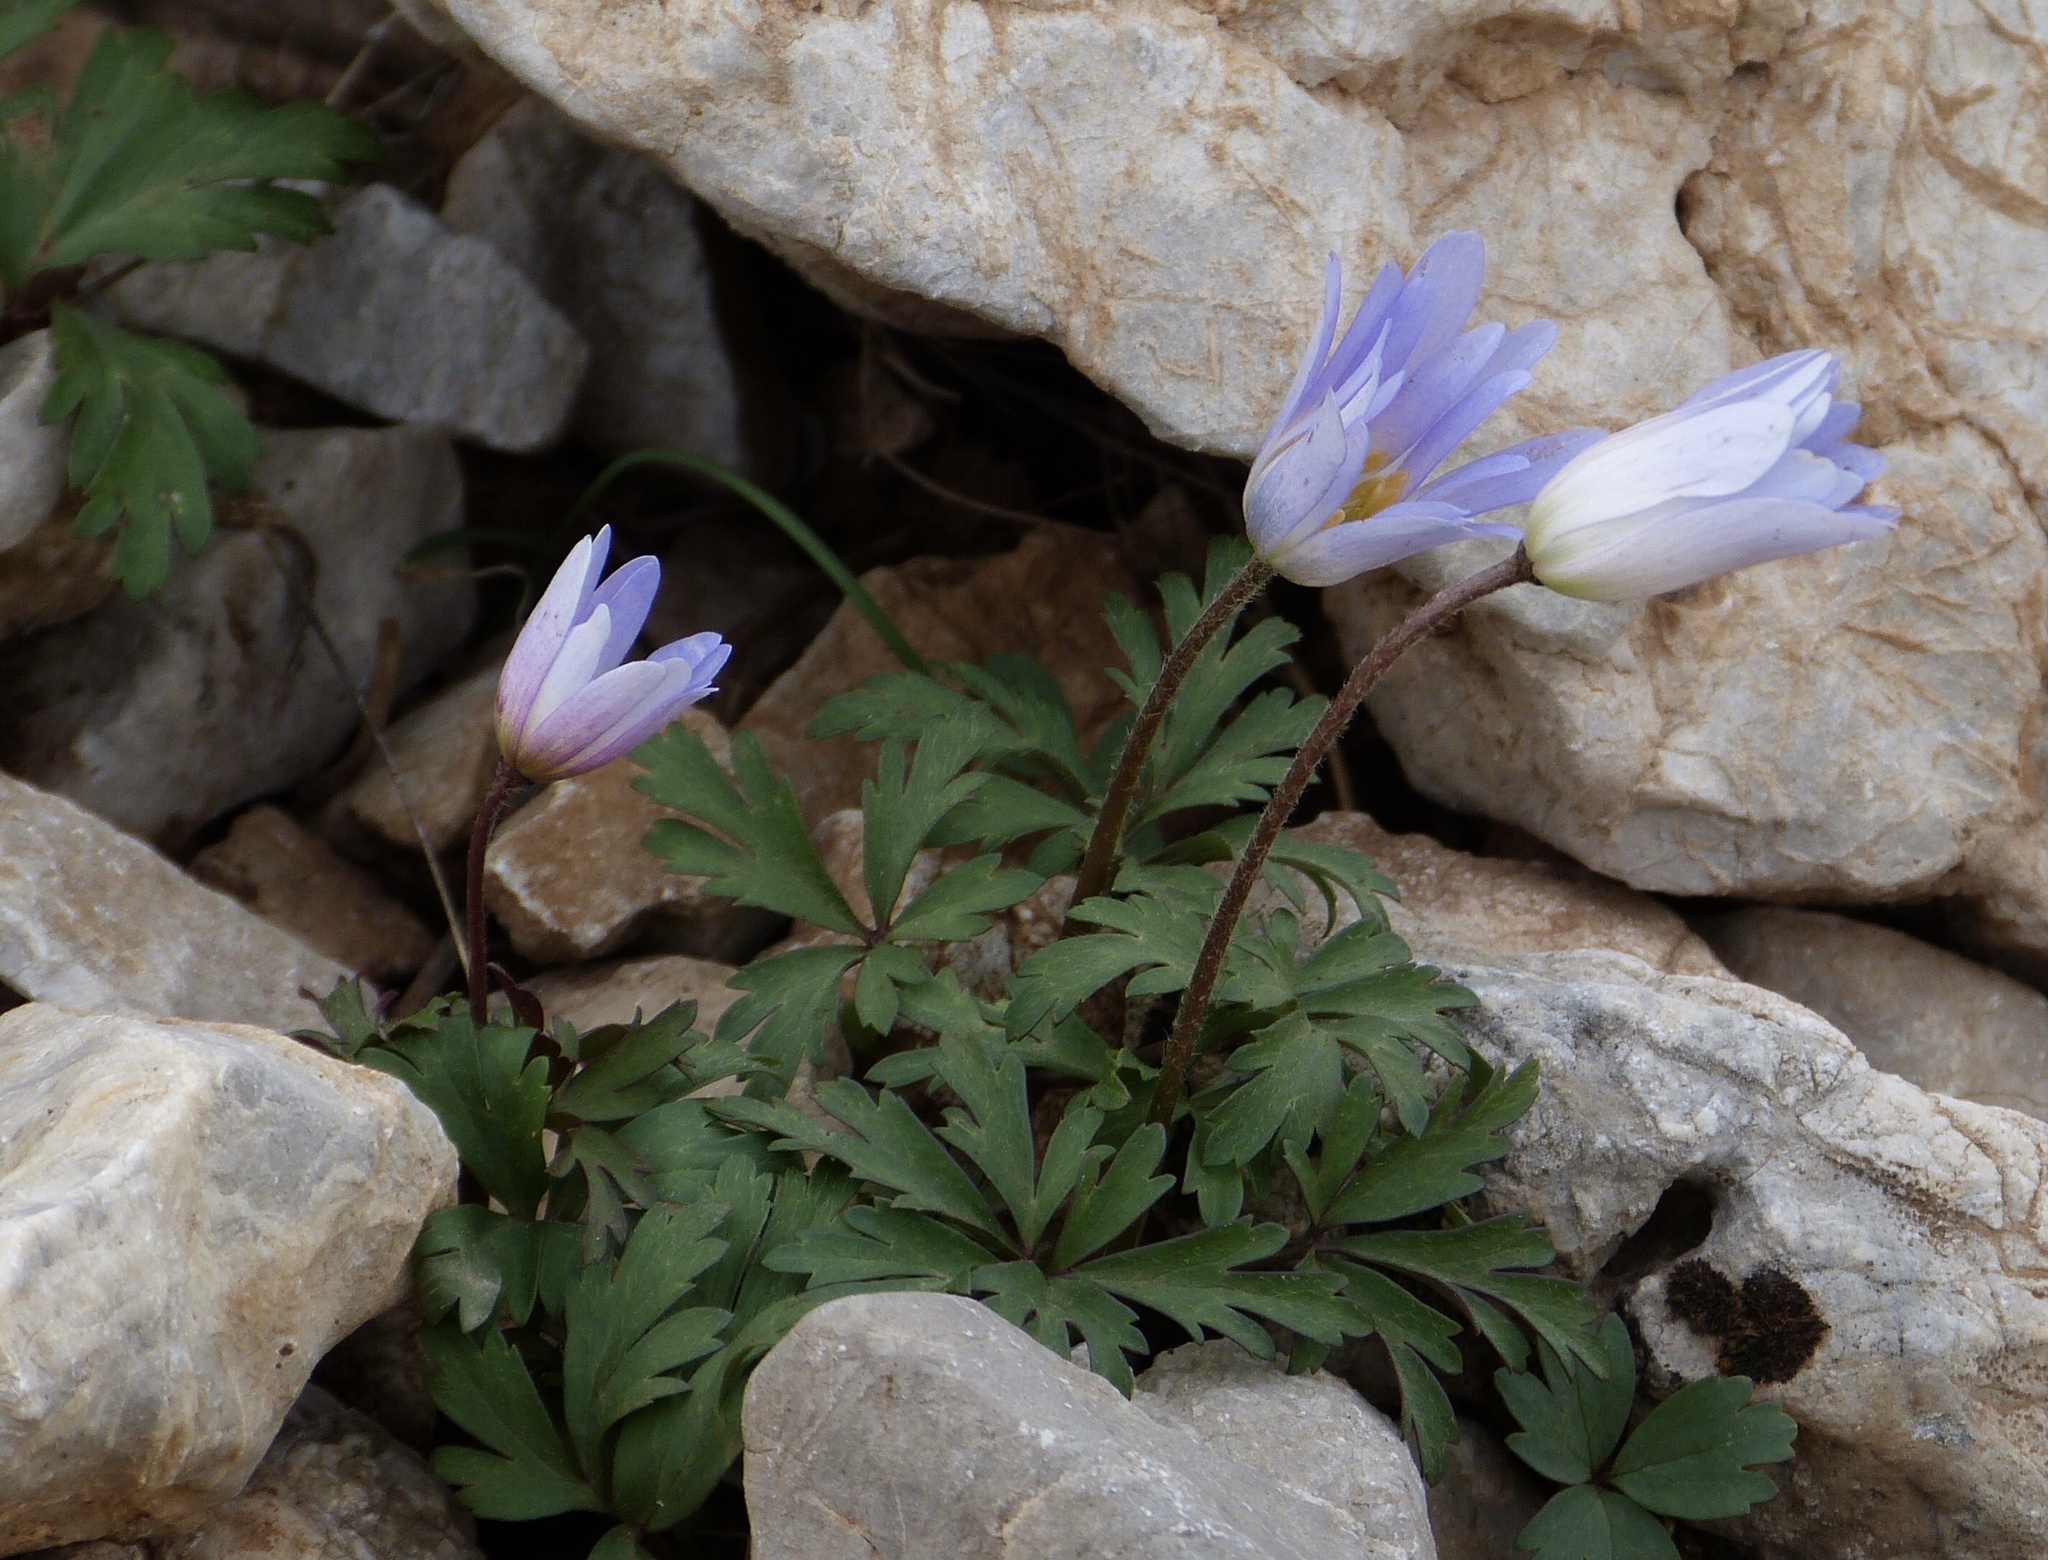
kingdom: Plantae
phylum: Tracheophyta
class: Magnoliopsida
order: Ranunculales
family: Ranunculaceae
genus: Anemone
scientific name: Anemone blanda
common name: Balkan anemone
